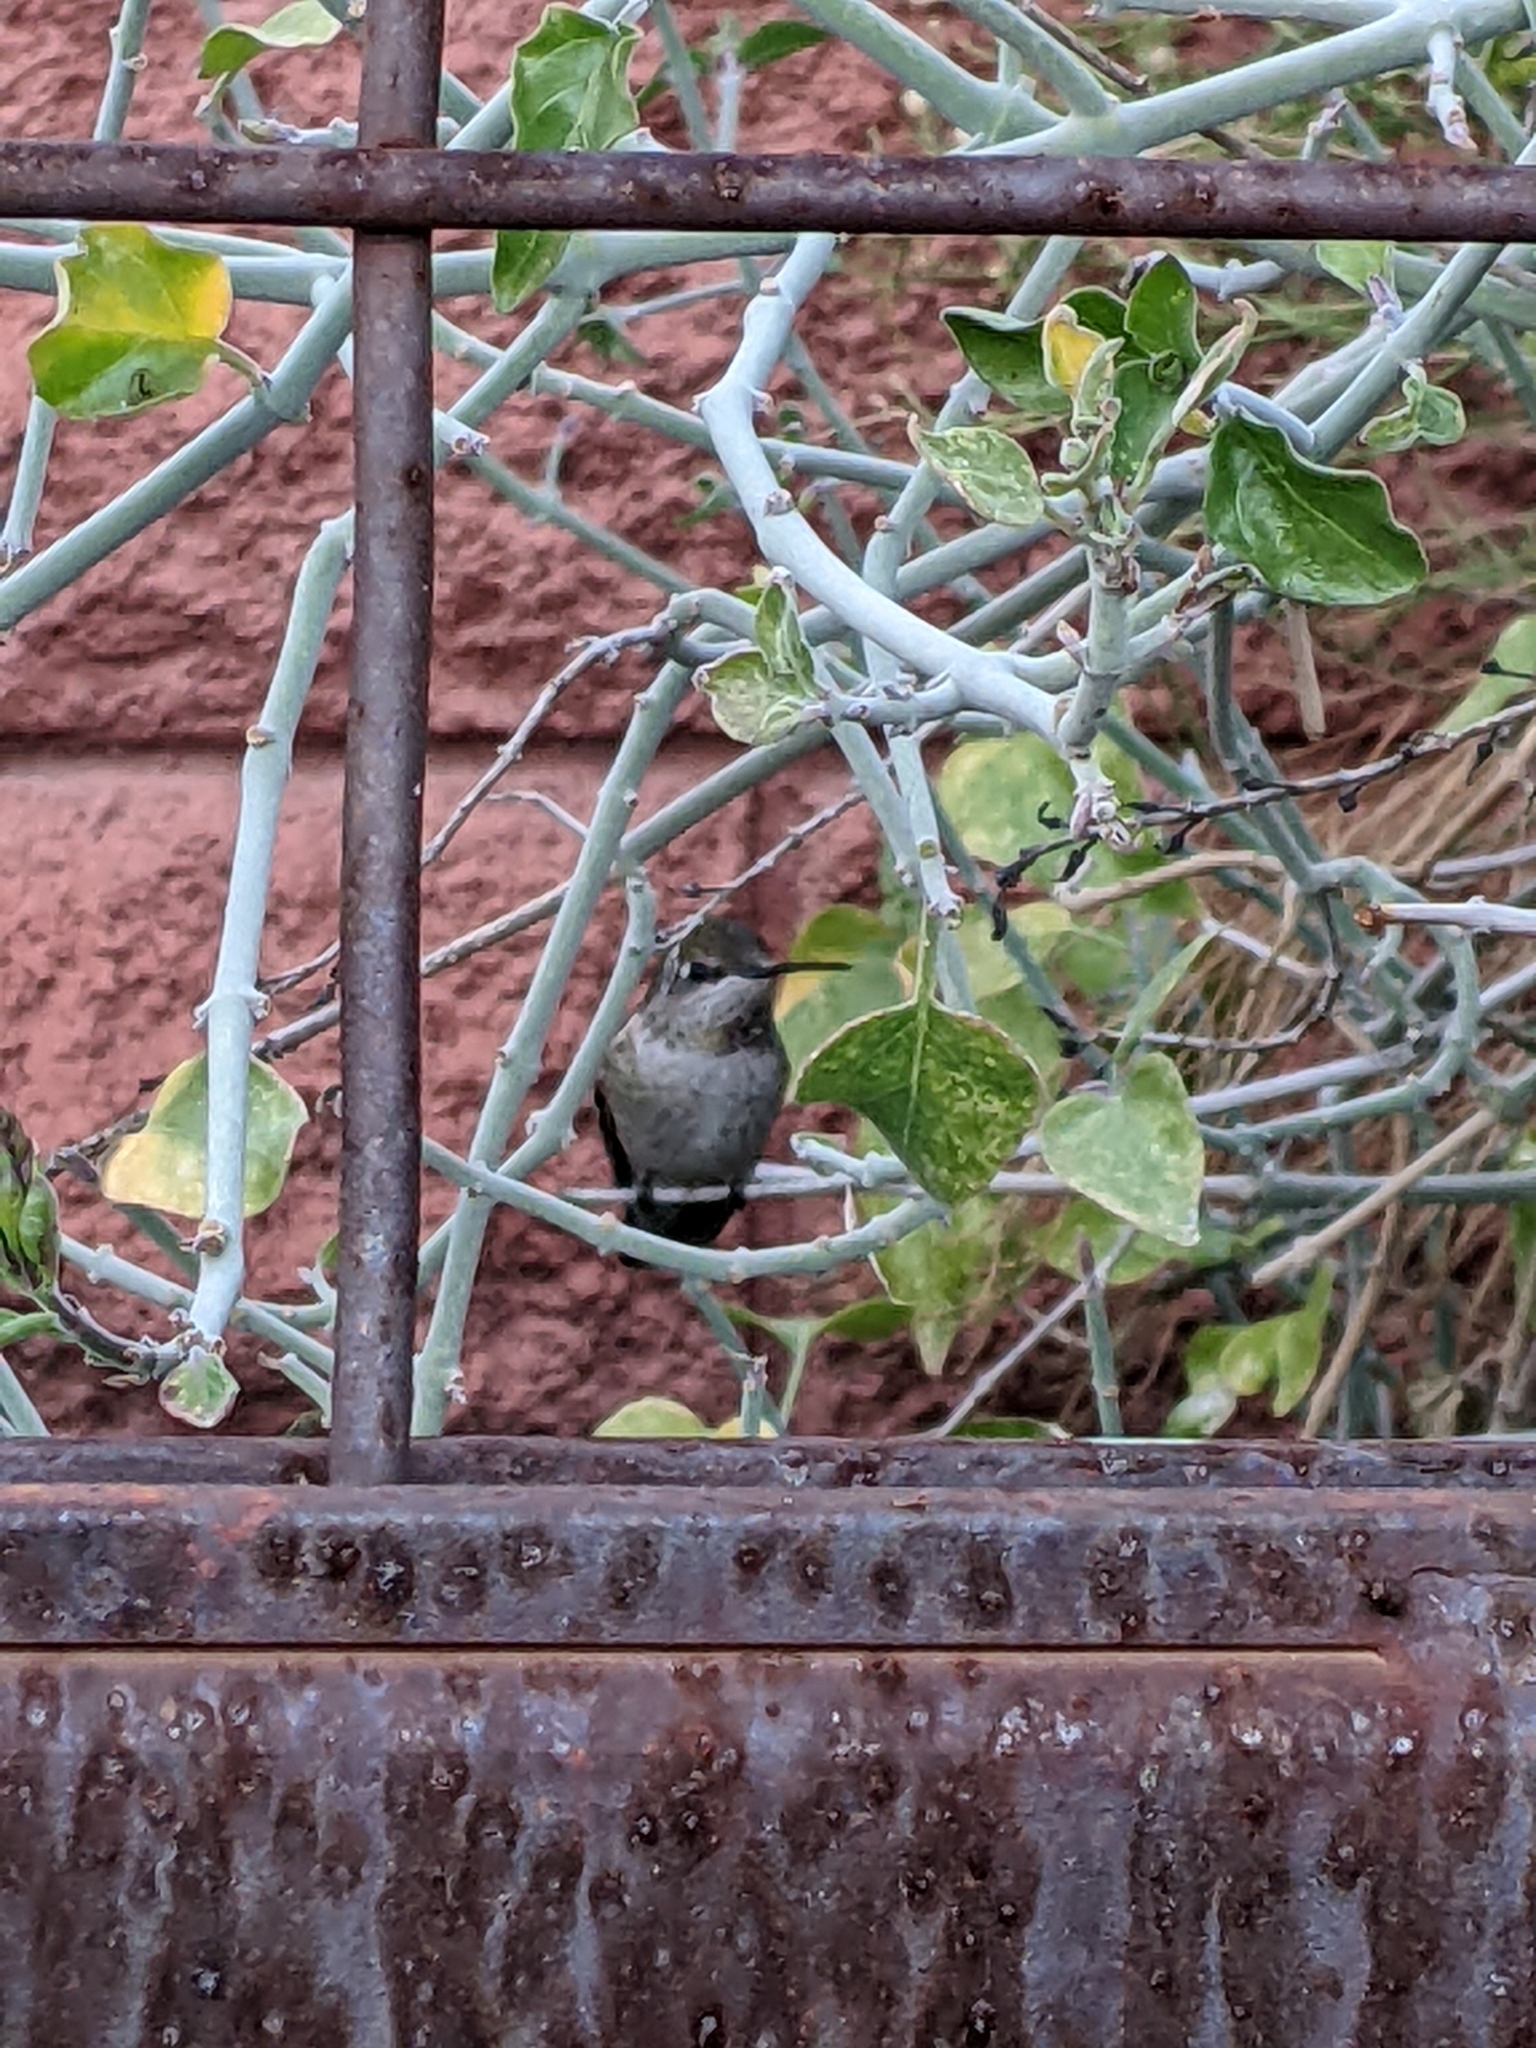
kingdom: Animalia
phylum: Chordata
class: Aves
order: Apodiformes
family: Trochilidae
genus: Calypte
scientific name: Calypte anna
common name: Anna's hummingbird
